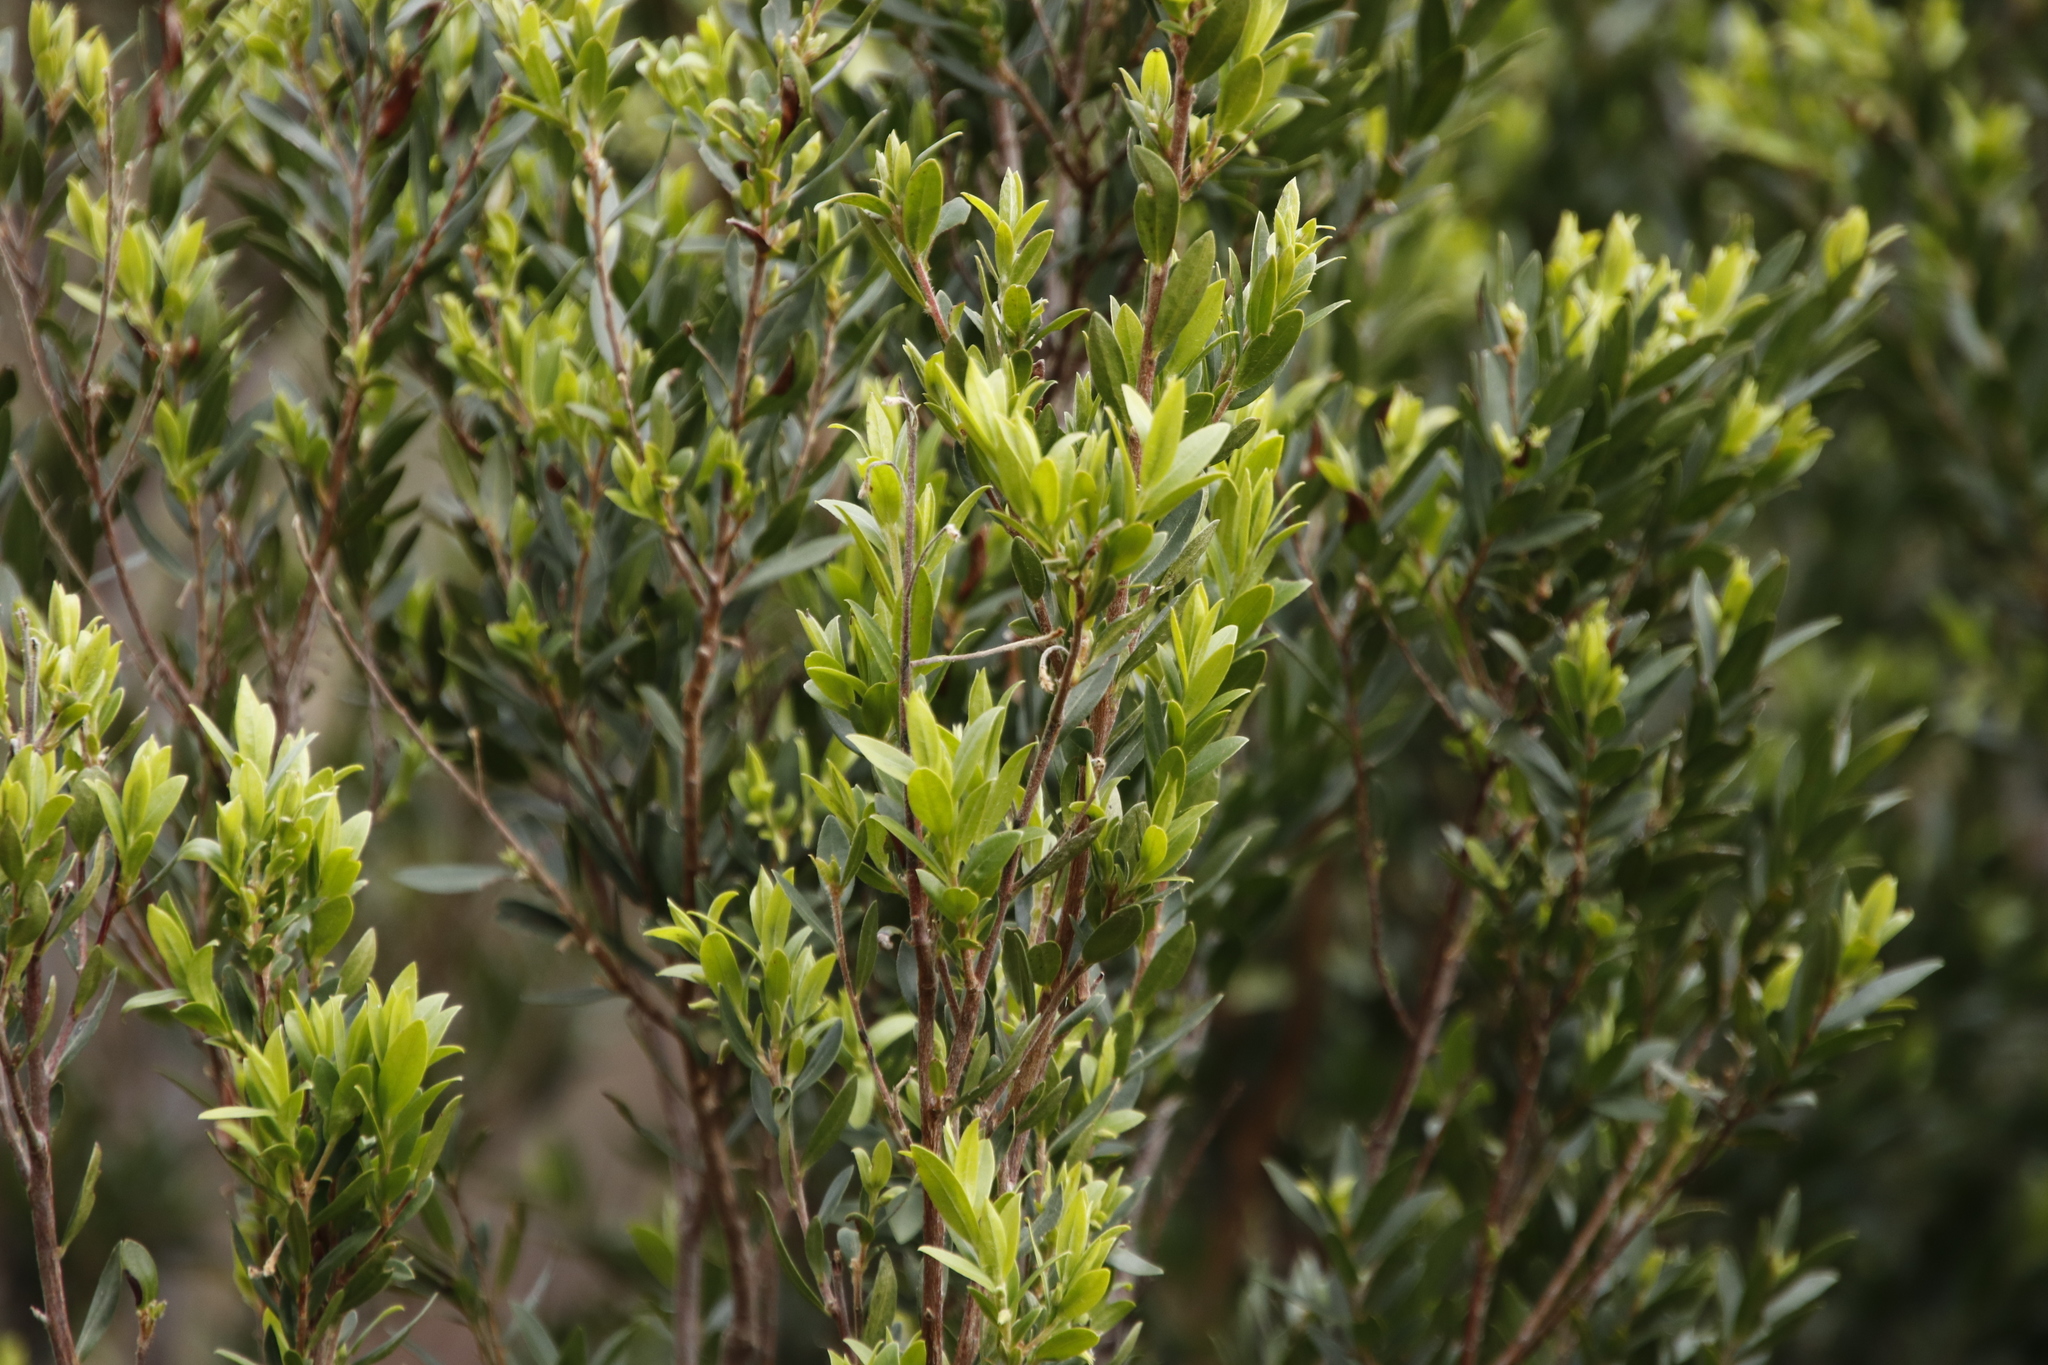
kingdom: Plantae
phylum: Tracheophyta
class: Magnoliopsida
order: Ericales
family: Ebenaceae
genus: Diospyros
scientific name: Diospyros glabra
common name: Fynbos star apple
